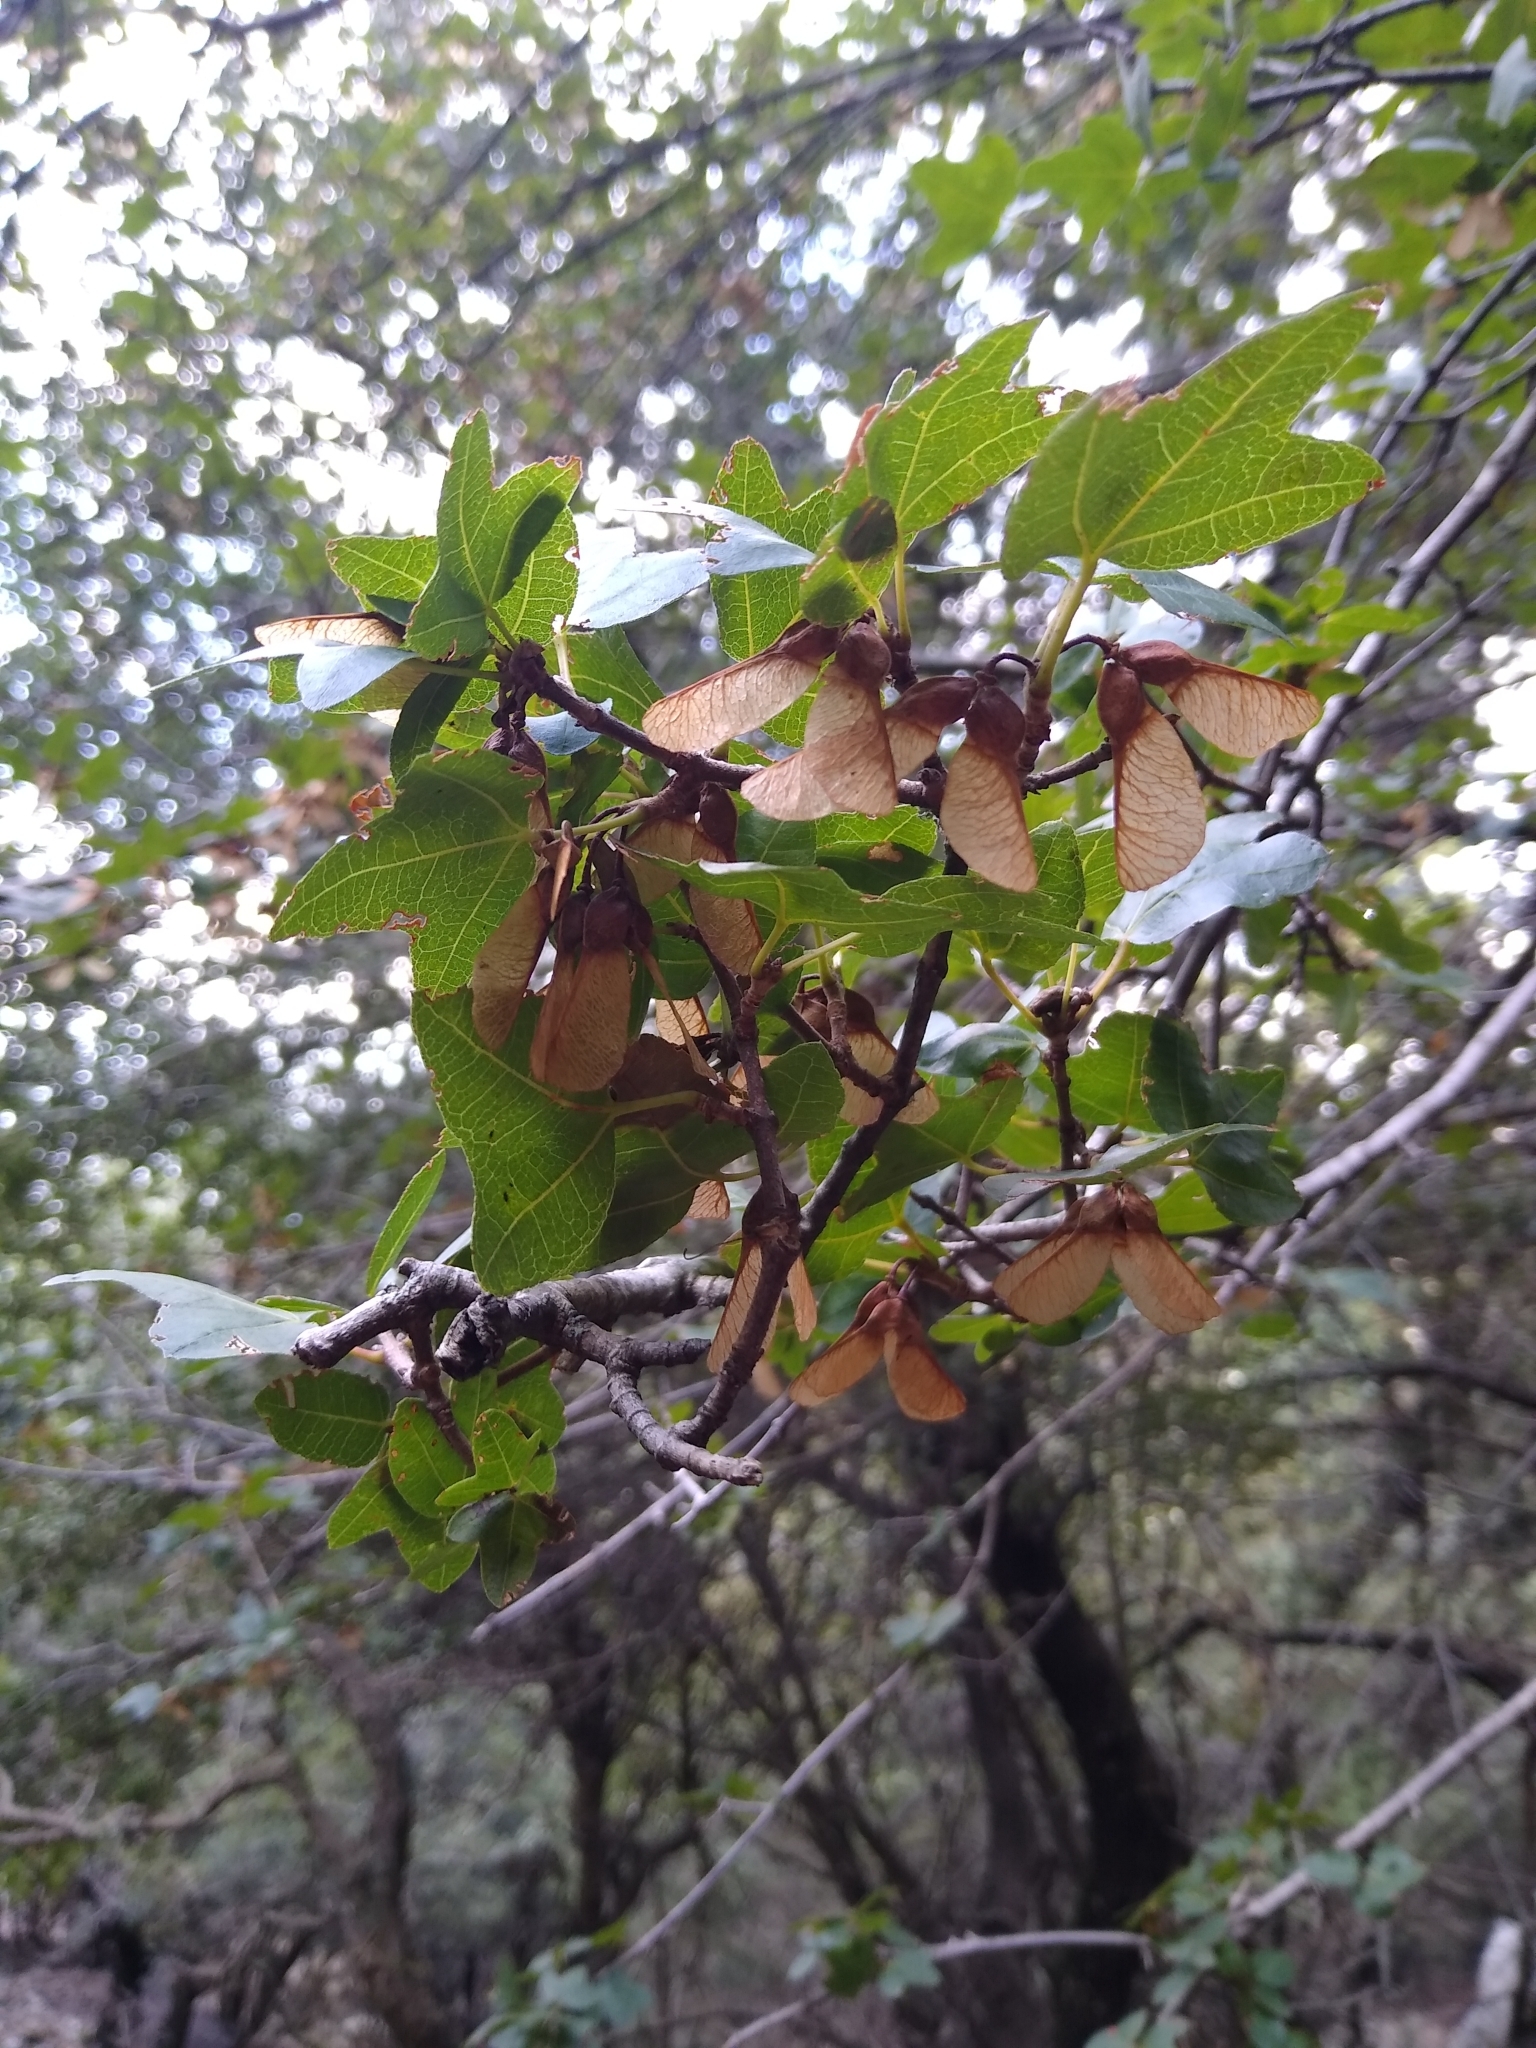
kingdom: Plantae
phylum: Tracheophyta
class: Magnoliopsida
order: Sapindales
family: Sapindaceae
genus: Acer
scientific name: Acer sempervirens
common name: Cretan maple
